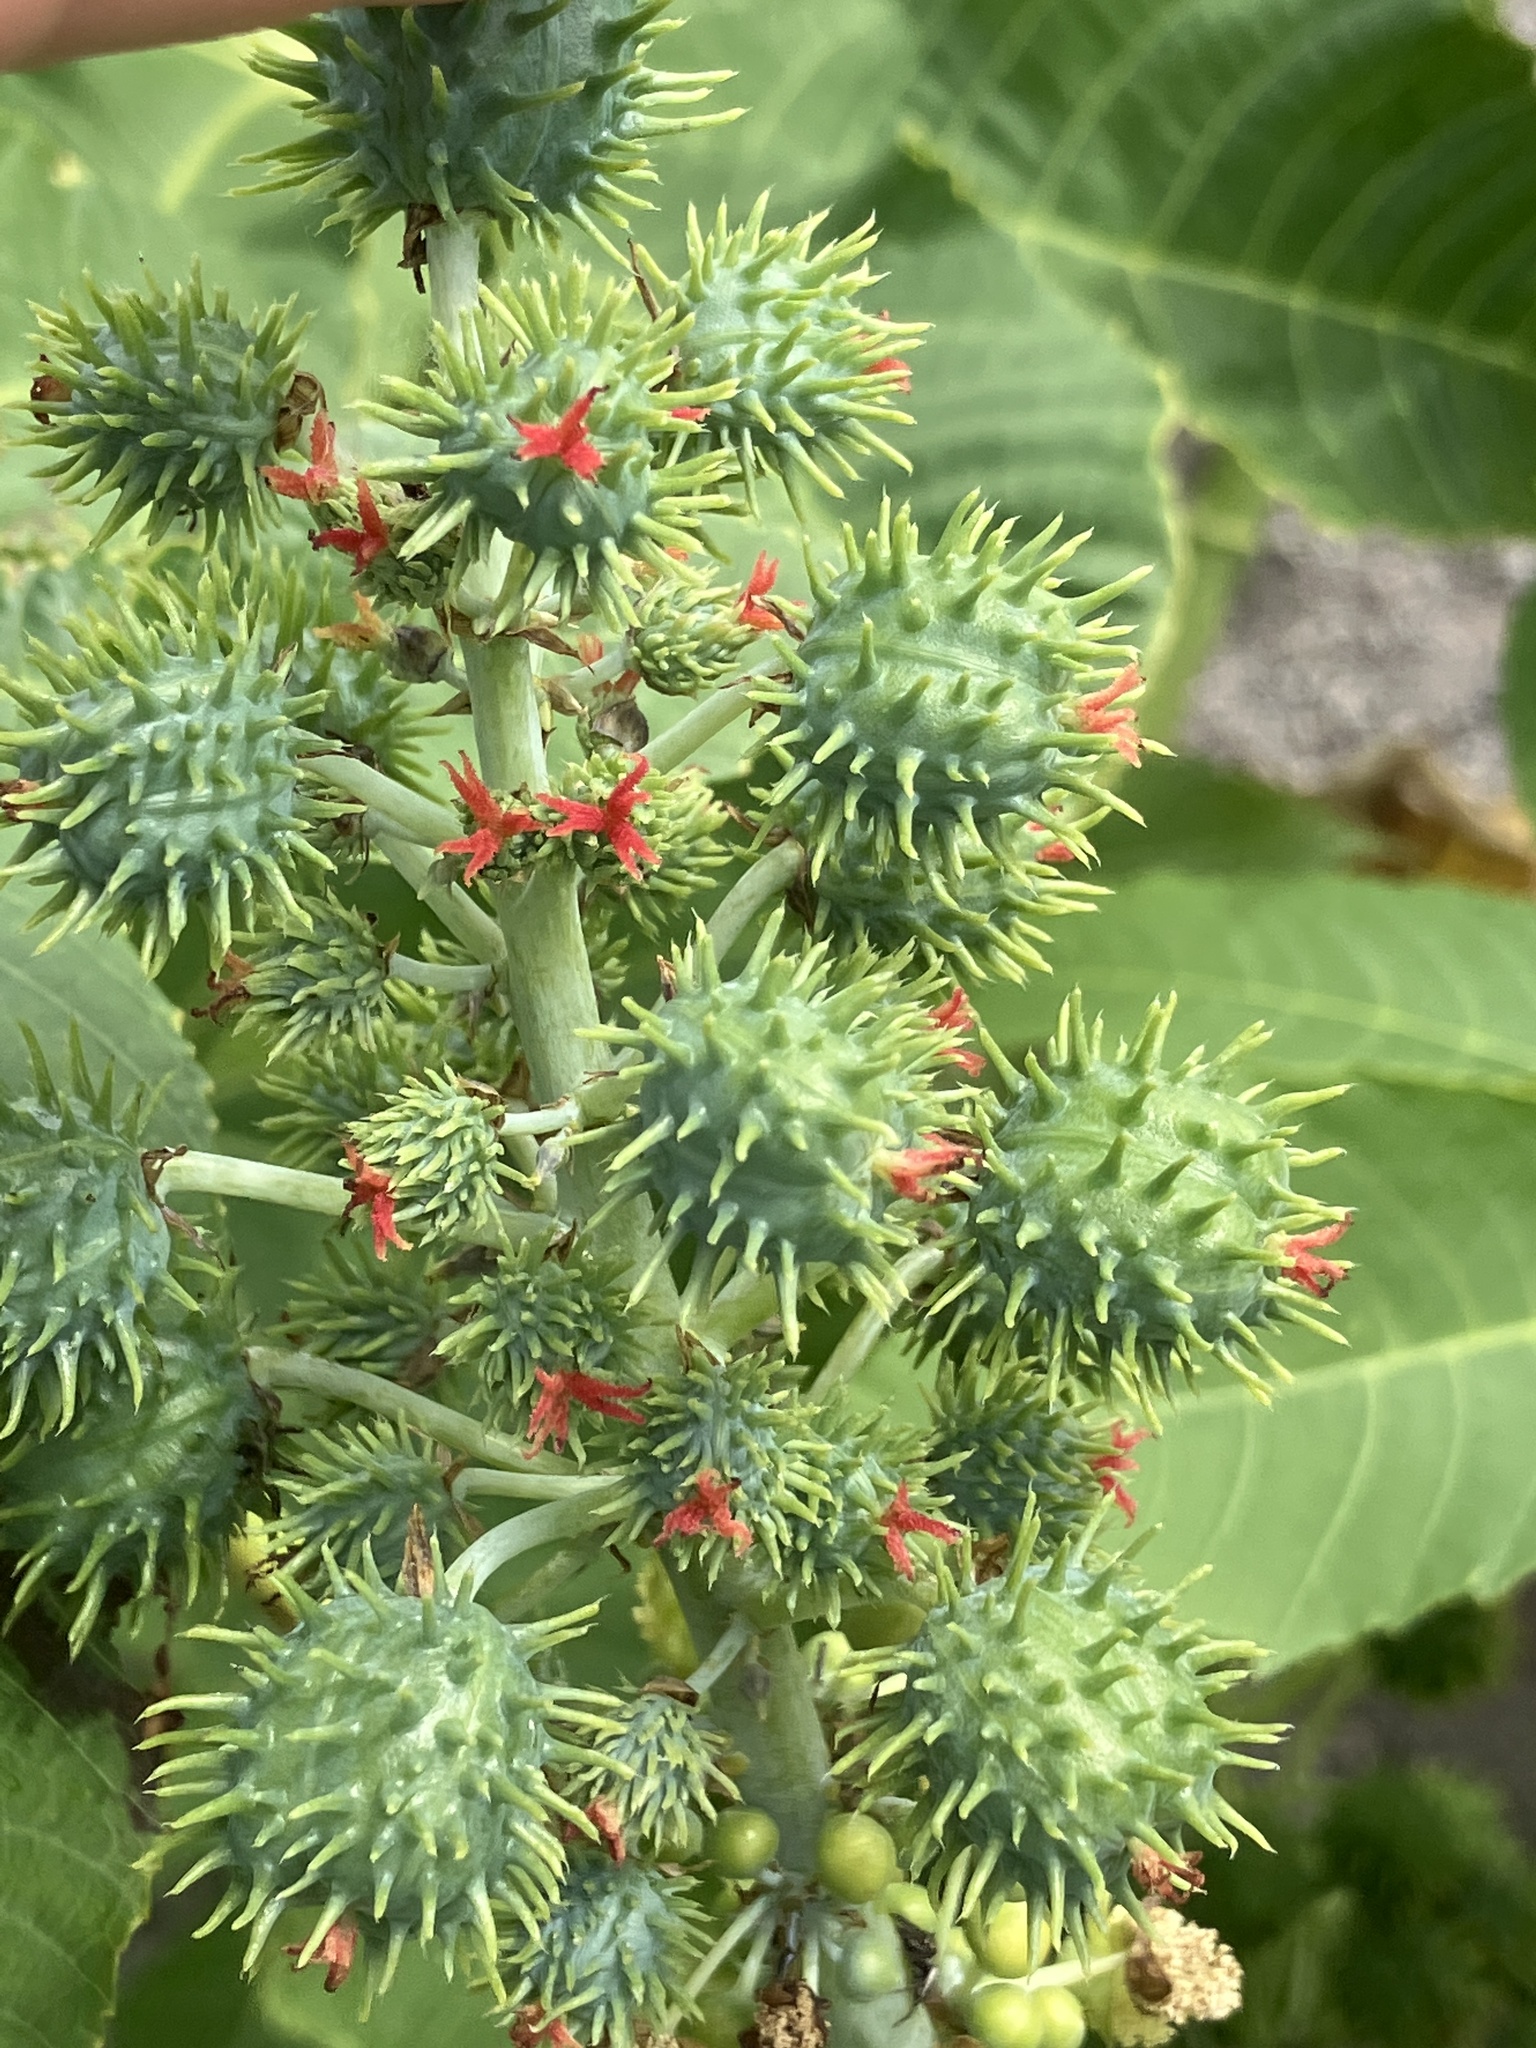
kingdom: Plantae
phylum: Tracheophyta
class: Magnoliopsida
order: Malpighiales
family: Euphorbiaceae
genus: Ricinus
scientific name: Ricinus communis
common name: Castor-oil-plant
